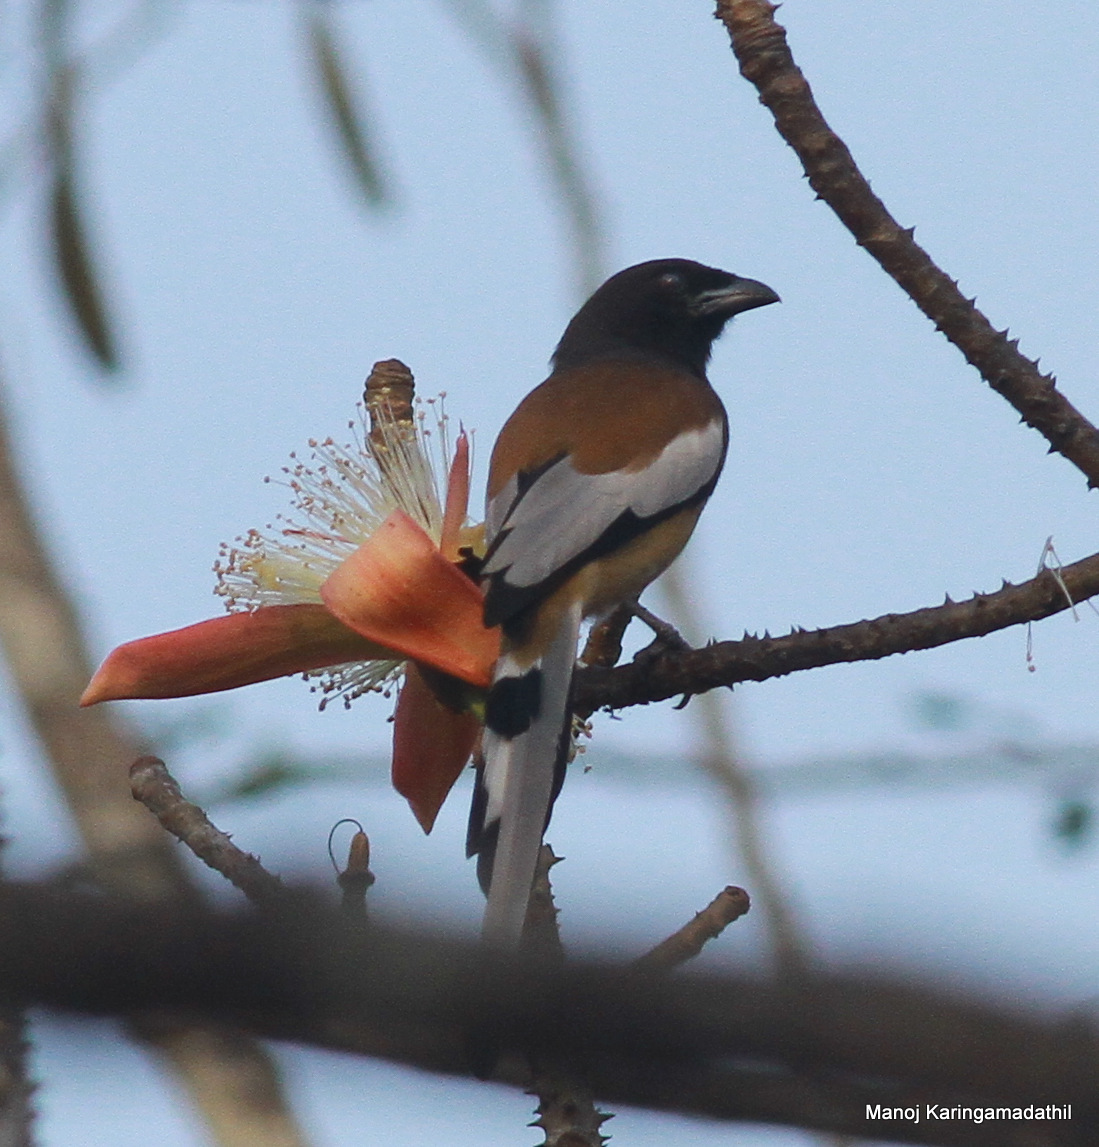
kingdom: Animalia
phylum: Chordata
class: Aves
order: Passeriformes
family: Corvidae
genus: Dendrocitta
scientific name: Dendrocitta vagabunda
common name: Rufous treepie
